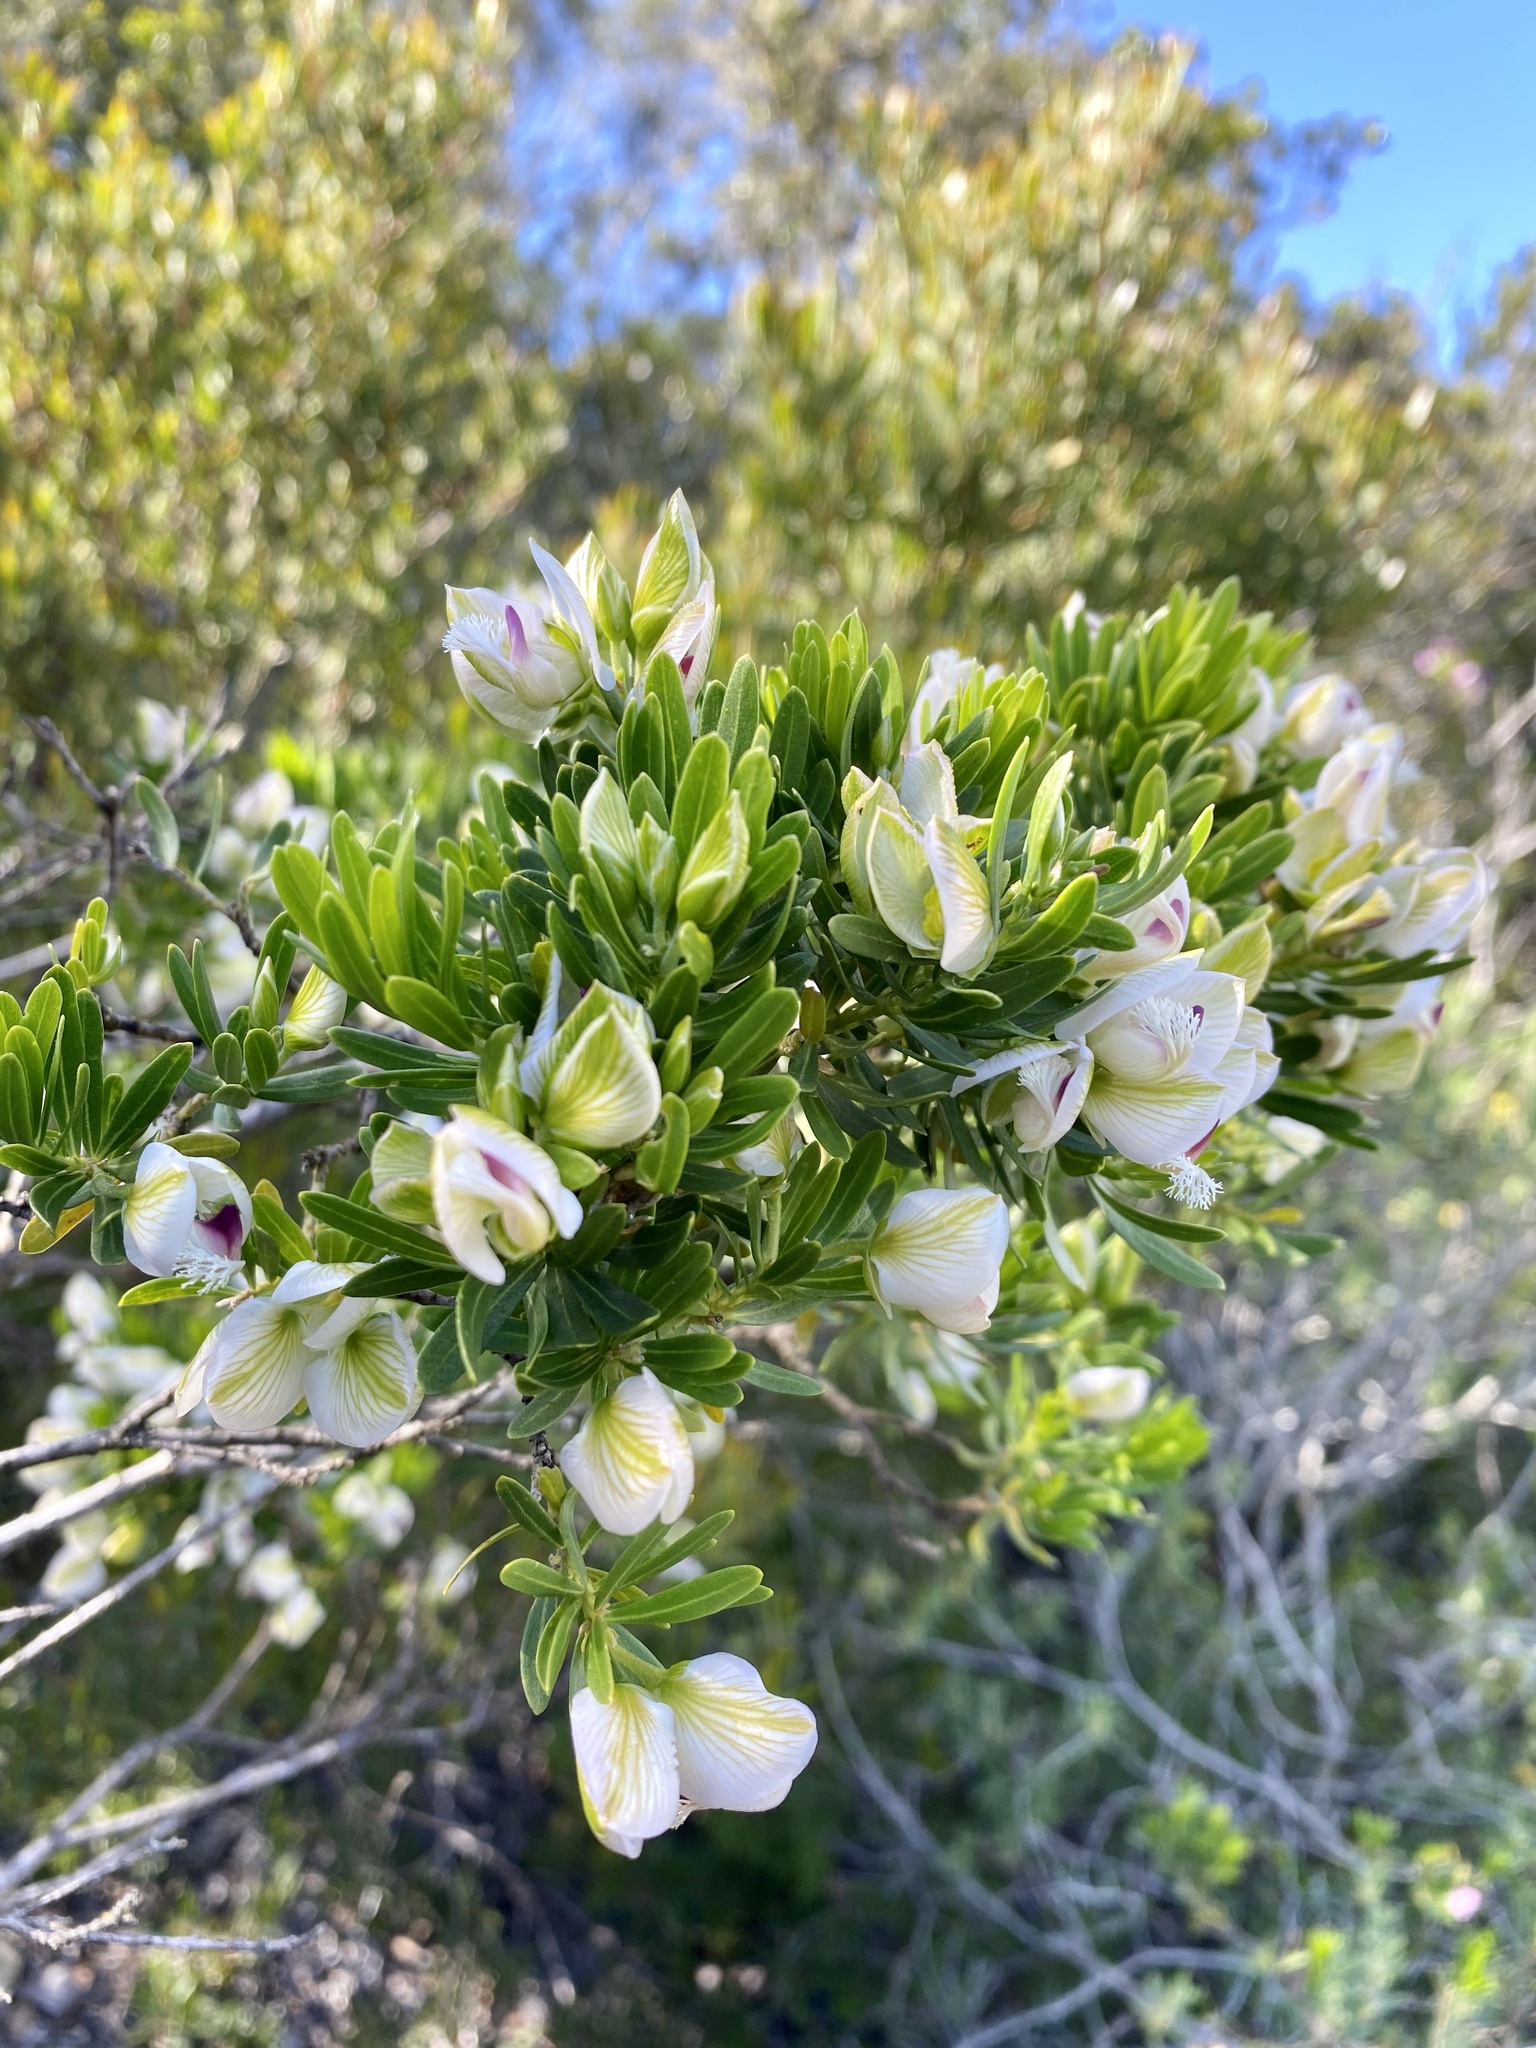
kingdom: Plantae
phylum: Tracheophyta
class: Magnoliopsida
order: Fabales
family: Polygalaceae
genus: Polygala
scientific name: Polygala myrtifolia
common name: Myrtle-leaf milkwort
